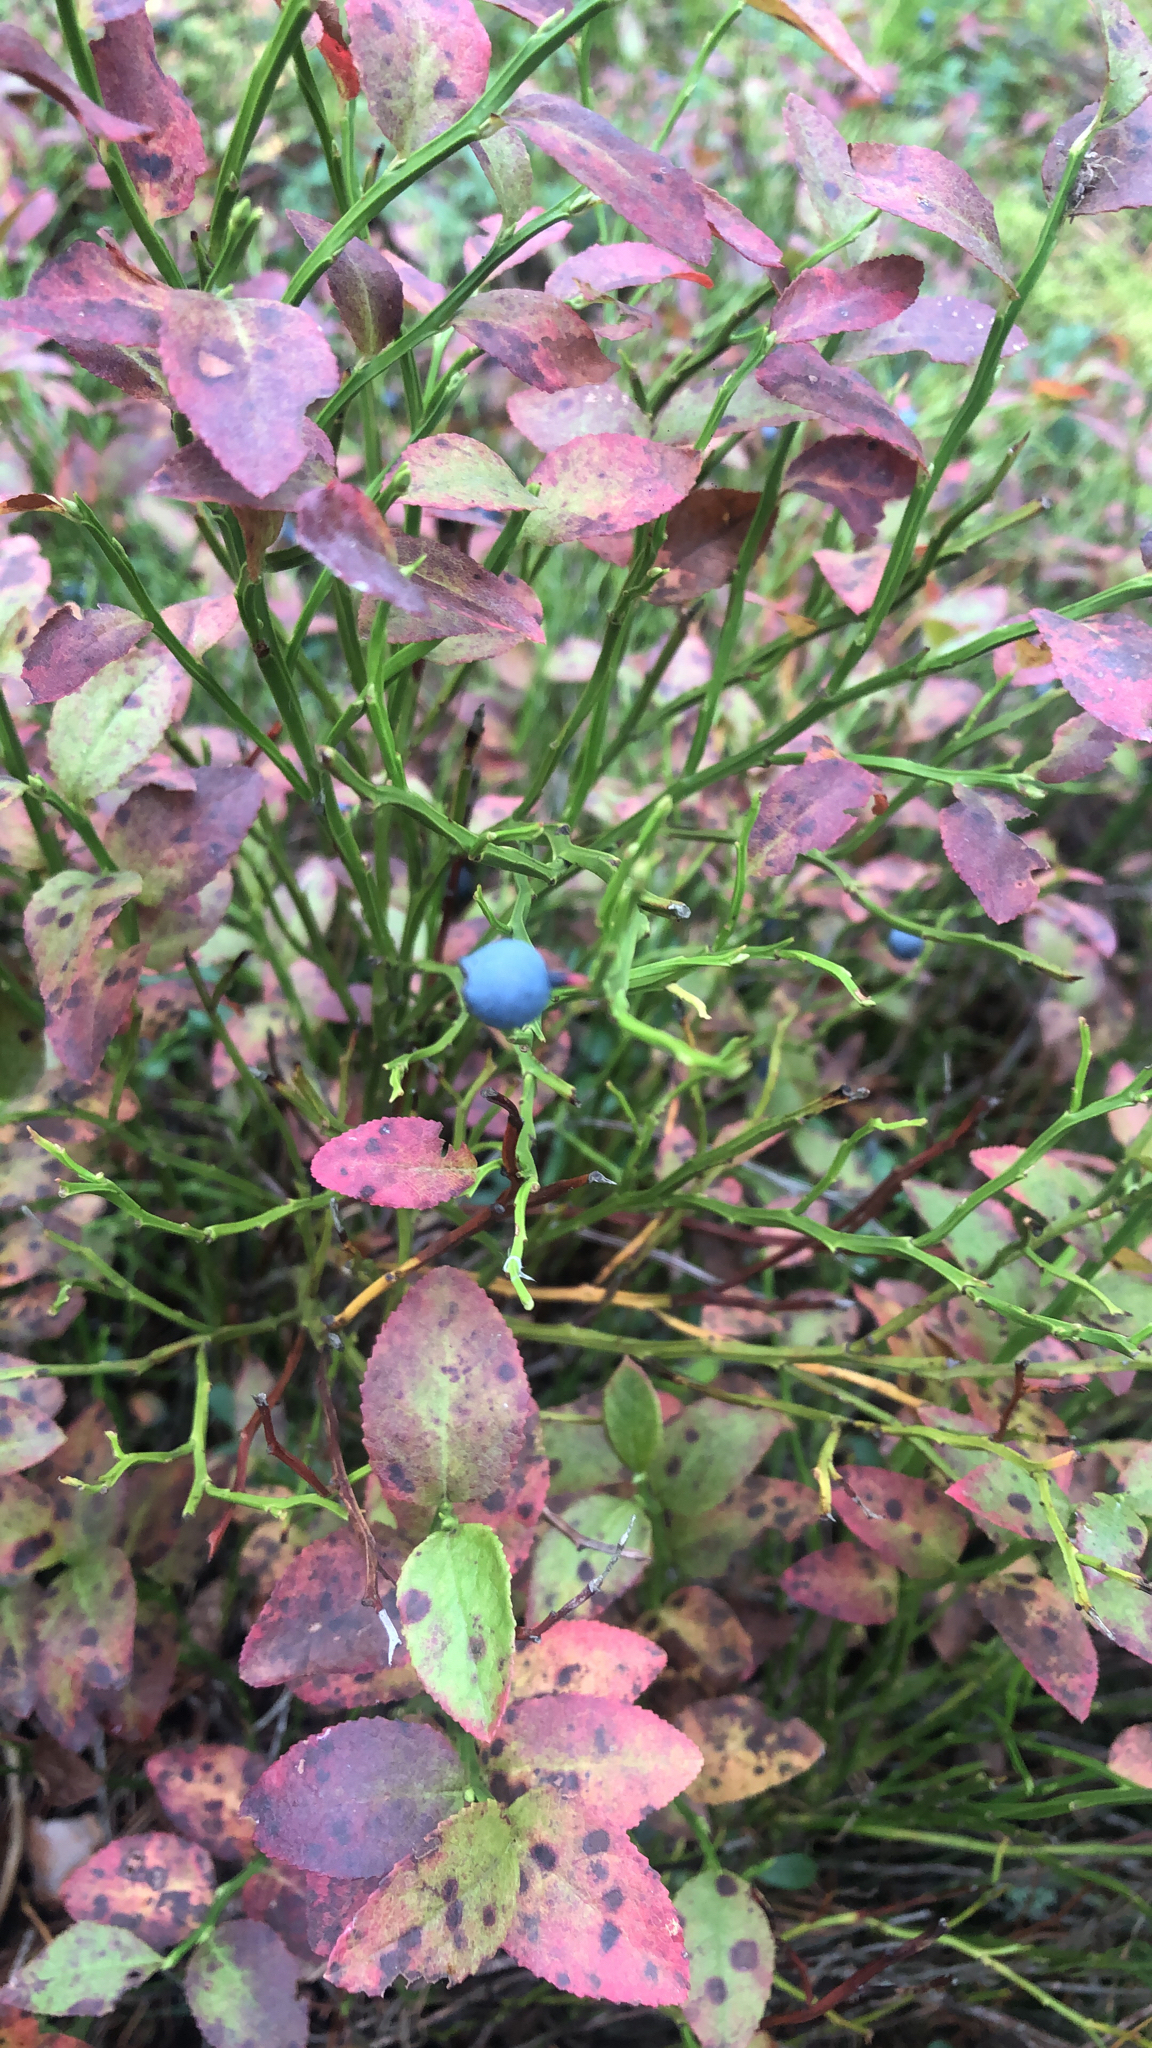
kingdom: Plantae
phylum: Tracheophyta
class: Magnoliopsida
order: Ericales
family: Ericaceae
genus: Vaccinium
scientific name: Vaccinium myrtillus
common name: Bilberry
